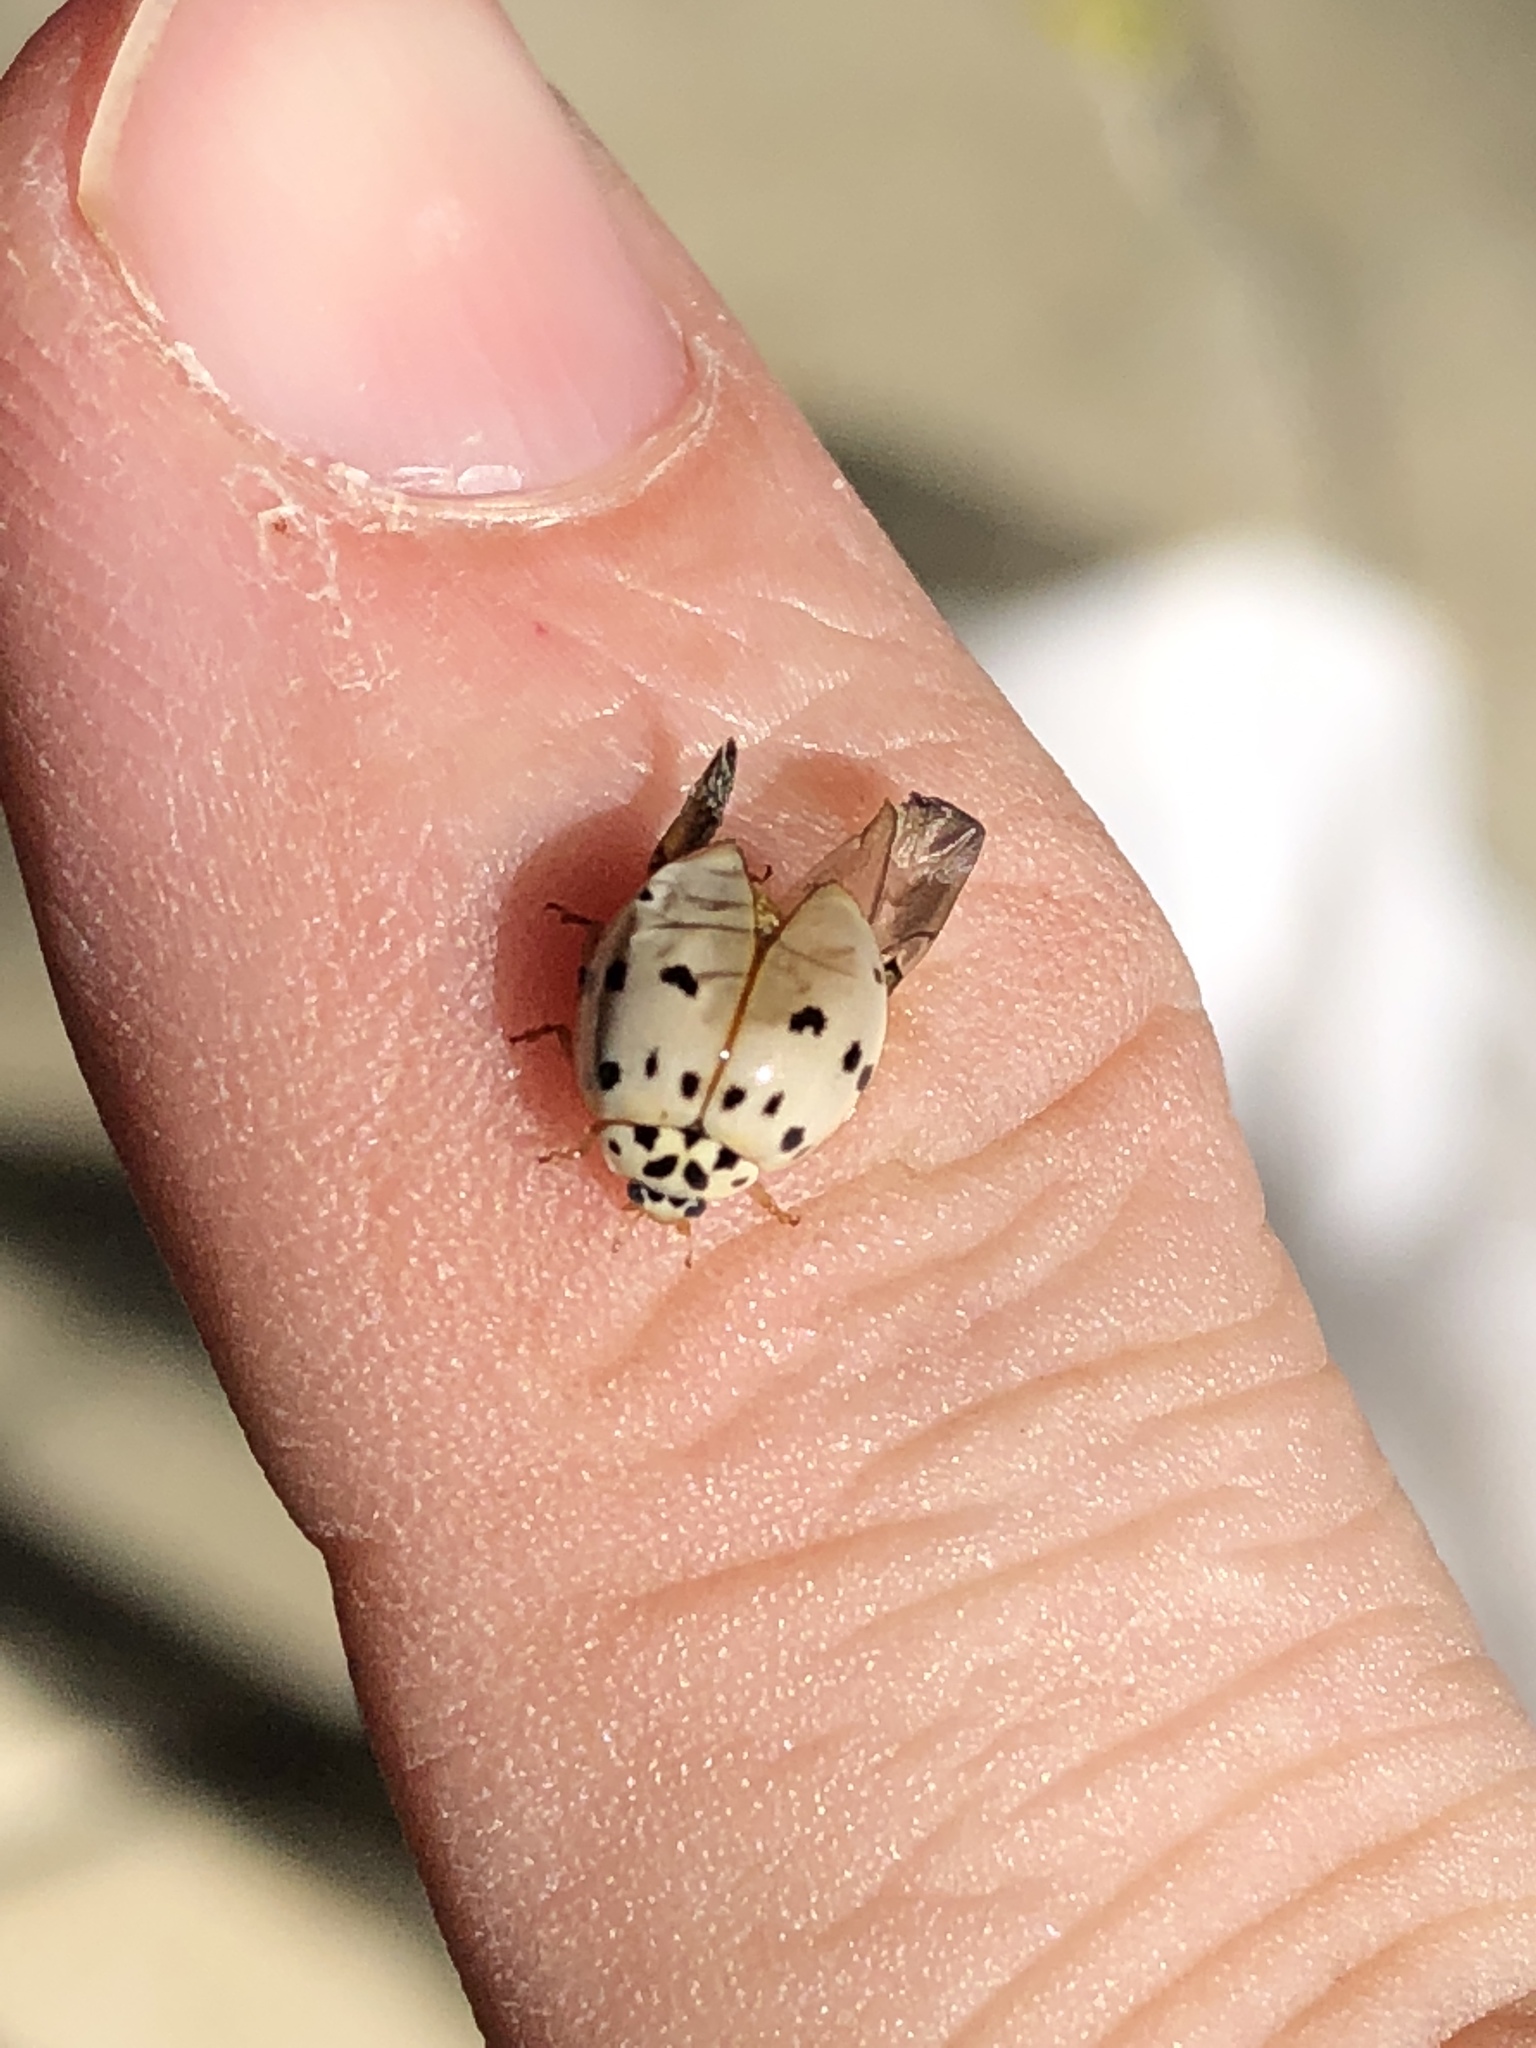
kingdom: Animalia
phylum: Arthropoda
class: Insecta
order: Coleoptera
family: Coccinellidae
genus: Olla
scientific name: Olla v-nigrum
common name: Ashy gray lady beetle
